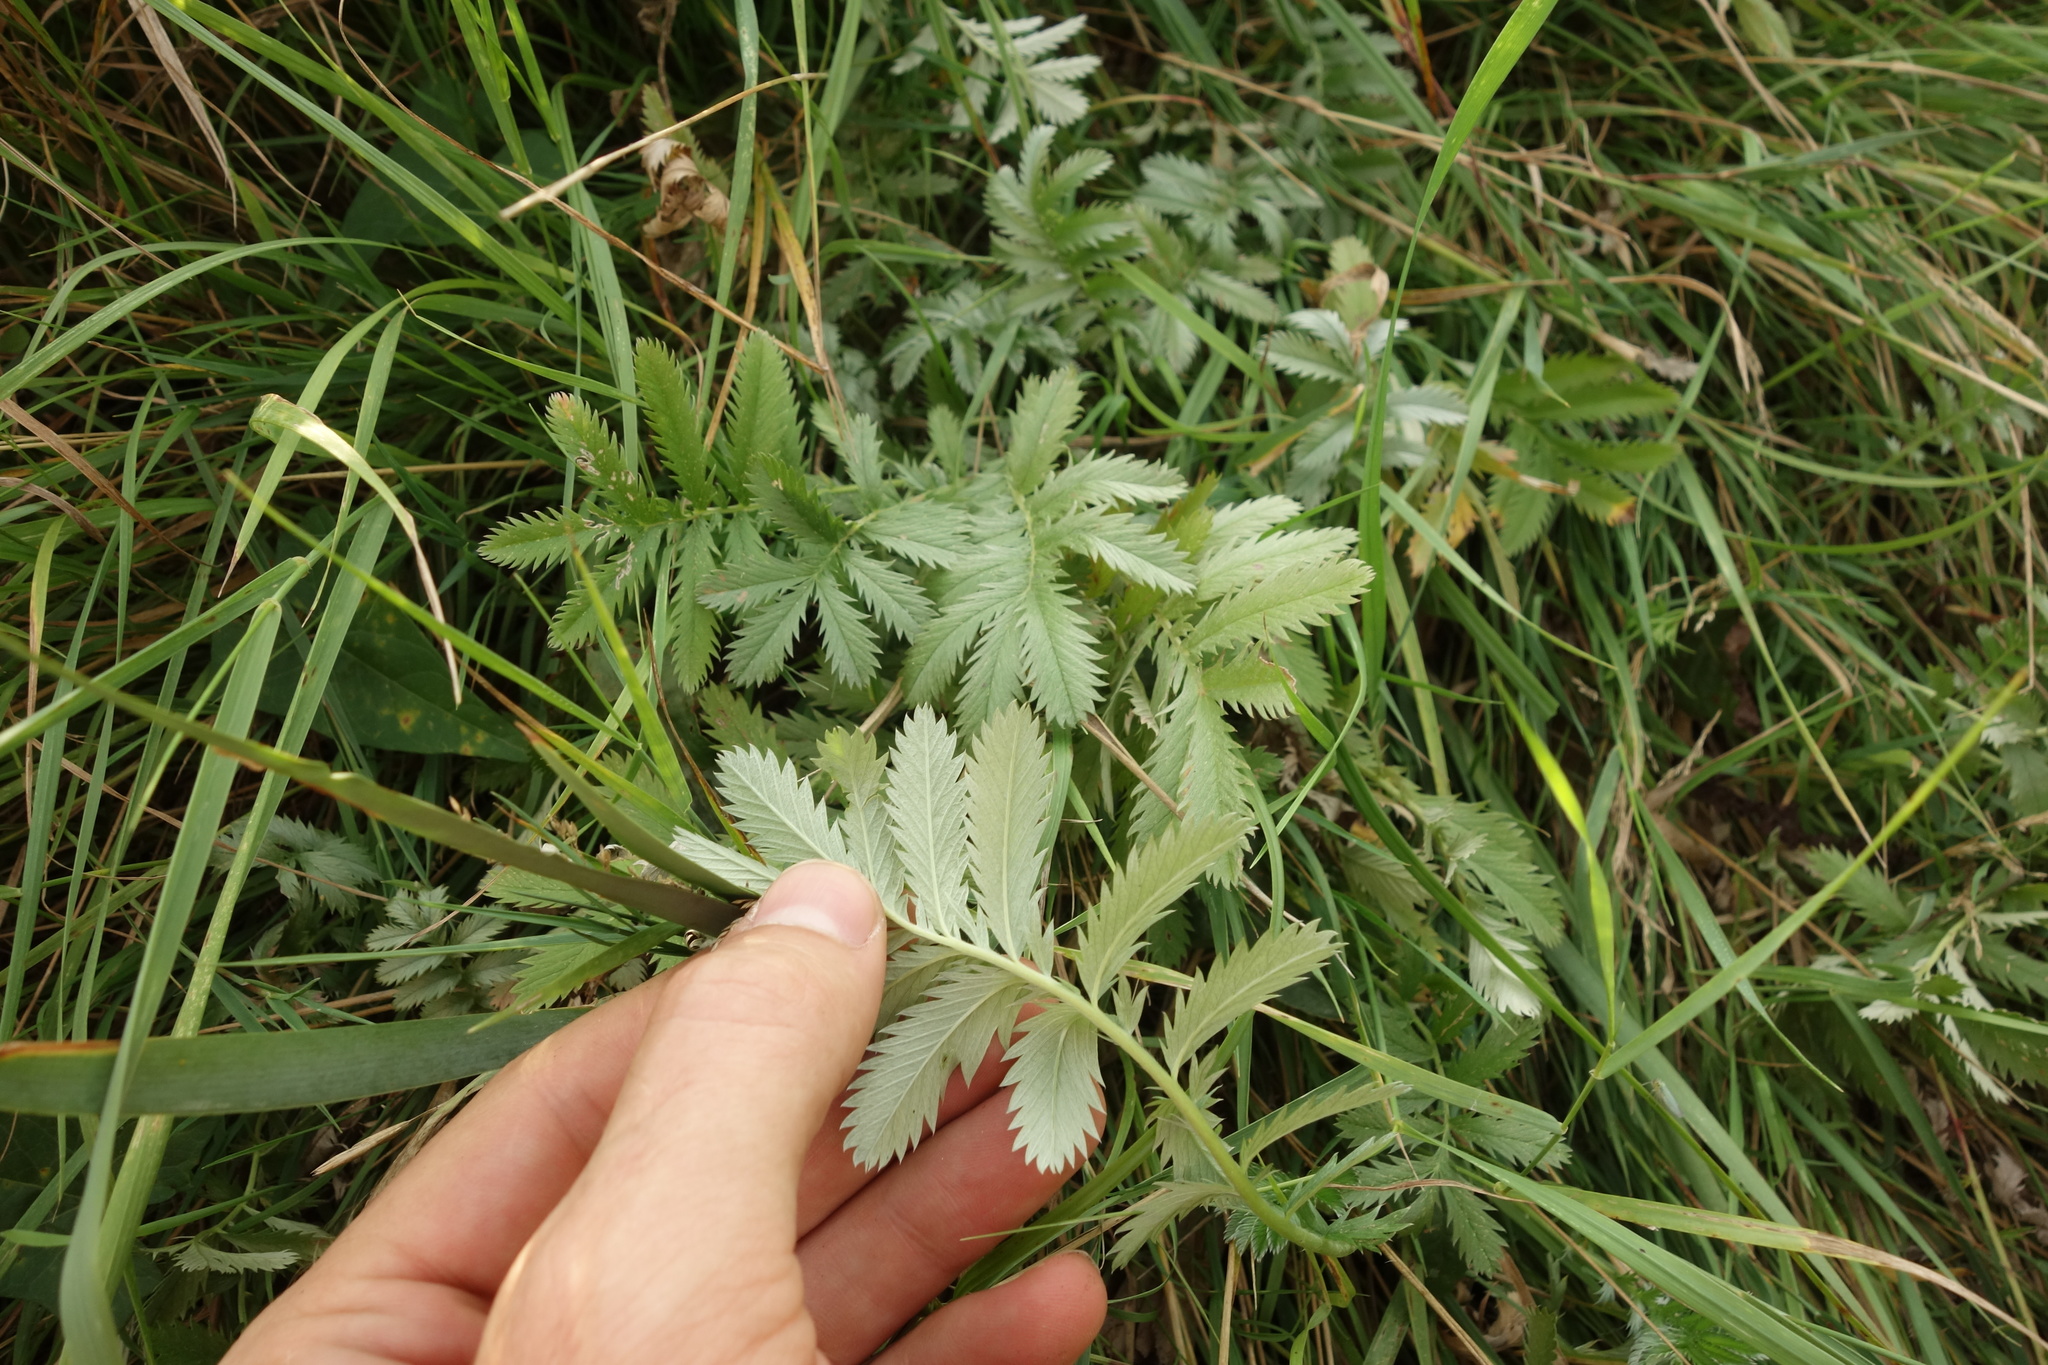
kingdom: Plantae
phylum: Tracheophyta
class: Magnoliopsida
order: Rosales
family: Rosaceae
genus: Argentina
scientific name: Argentina anserina
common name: Common silverweed
